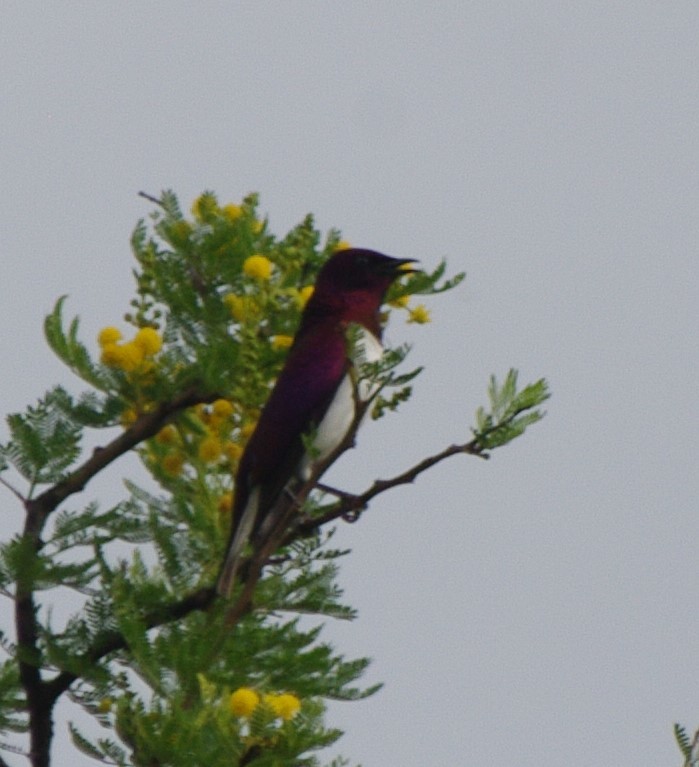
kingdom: Animalia
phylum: Chordata
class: Aves
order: Passeriformes
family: Sturnidae
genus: Cinnyricinclus
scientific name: Cinnyricinclus leucogaster
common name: Violet-backed starling
